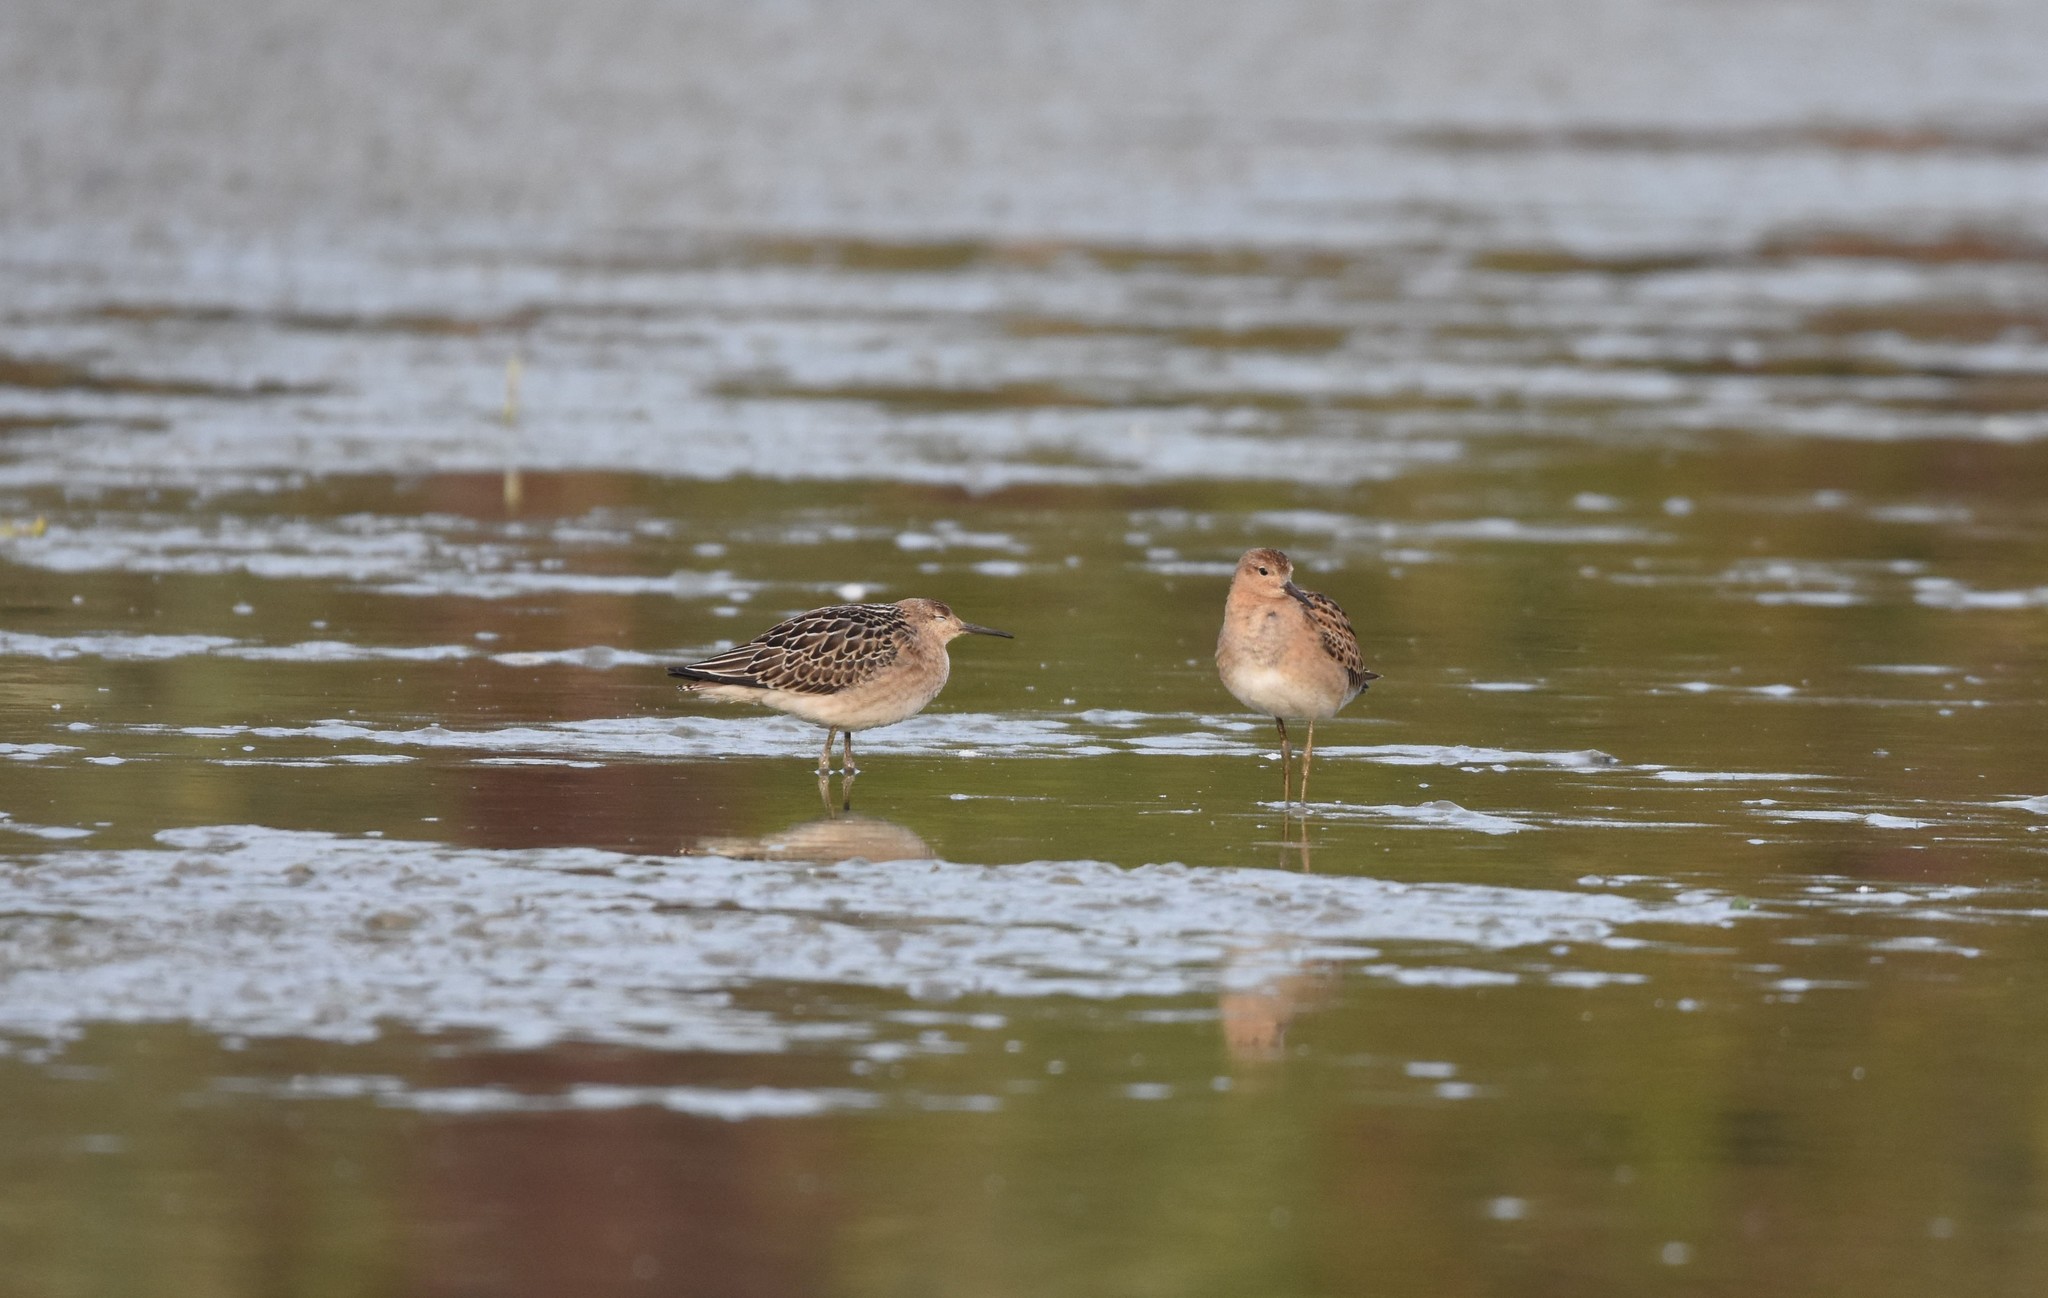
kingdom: Animalia
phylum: Chordata
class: Aves
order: Charadriiformes
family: Scolopacidae
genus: Calidris
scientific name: Calidris pugnax
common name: Ruff
